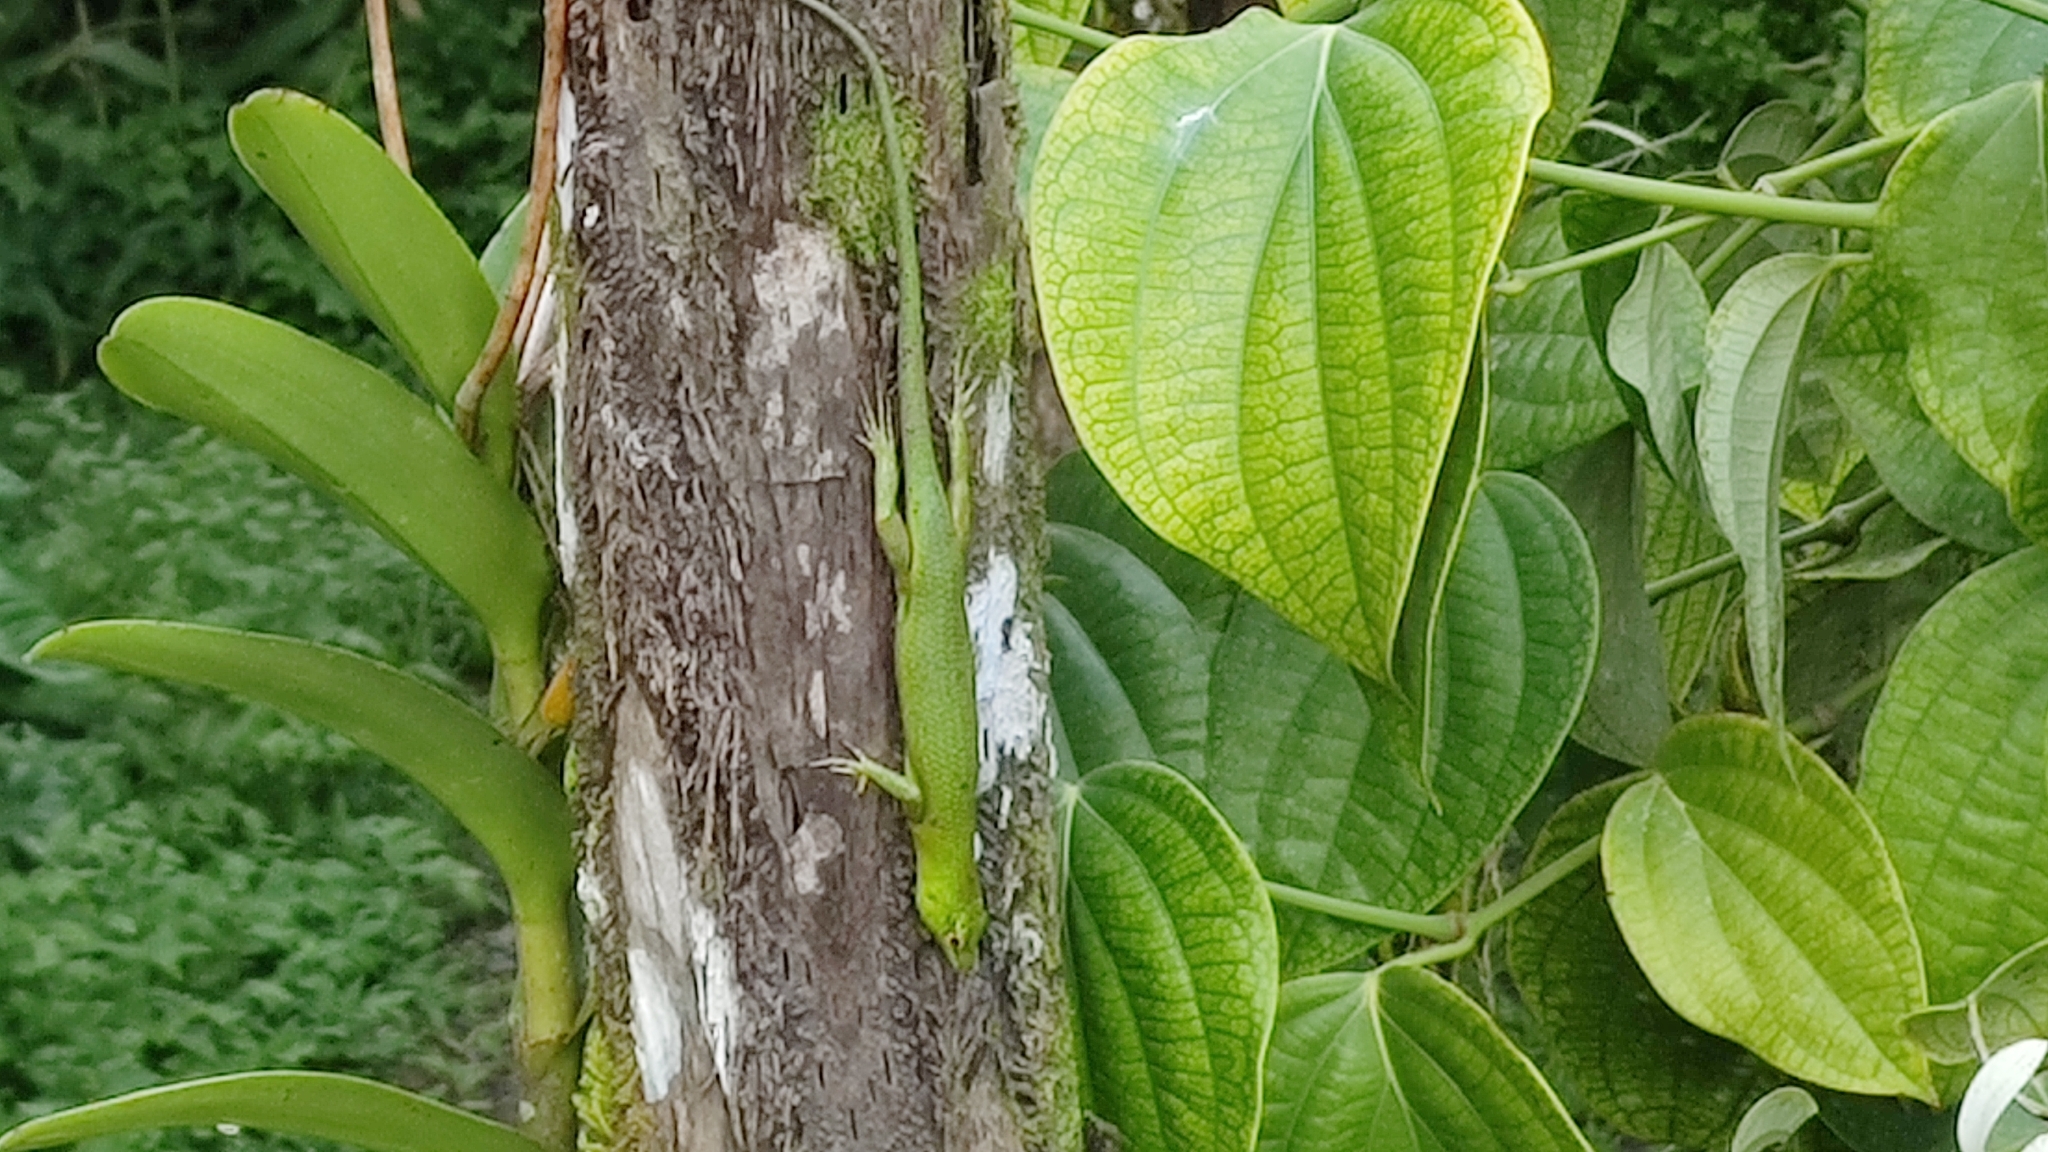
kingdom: Animalia
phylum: Chordata
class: Squamata
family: Scincidae
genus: Lamprolepis
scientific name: Lamprolepis smaragdina
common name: Emerald skink
